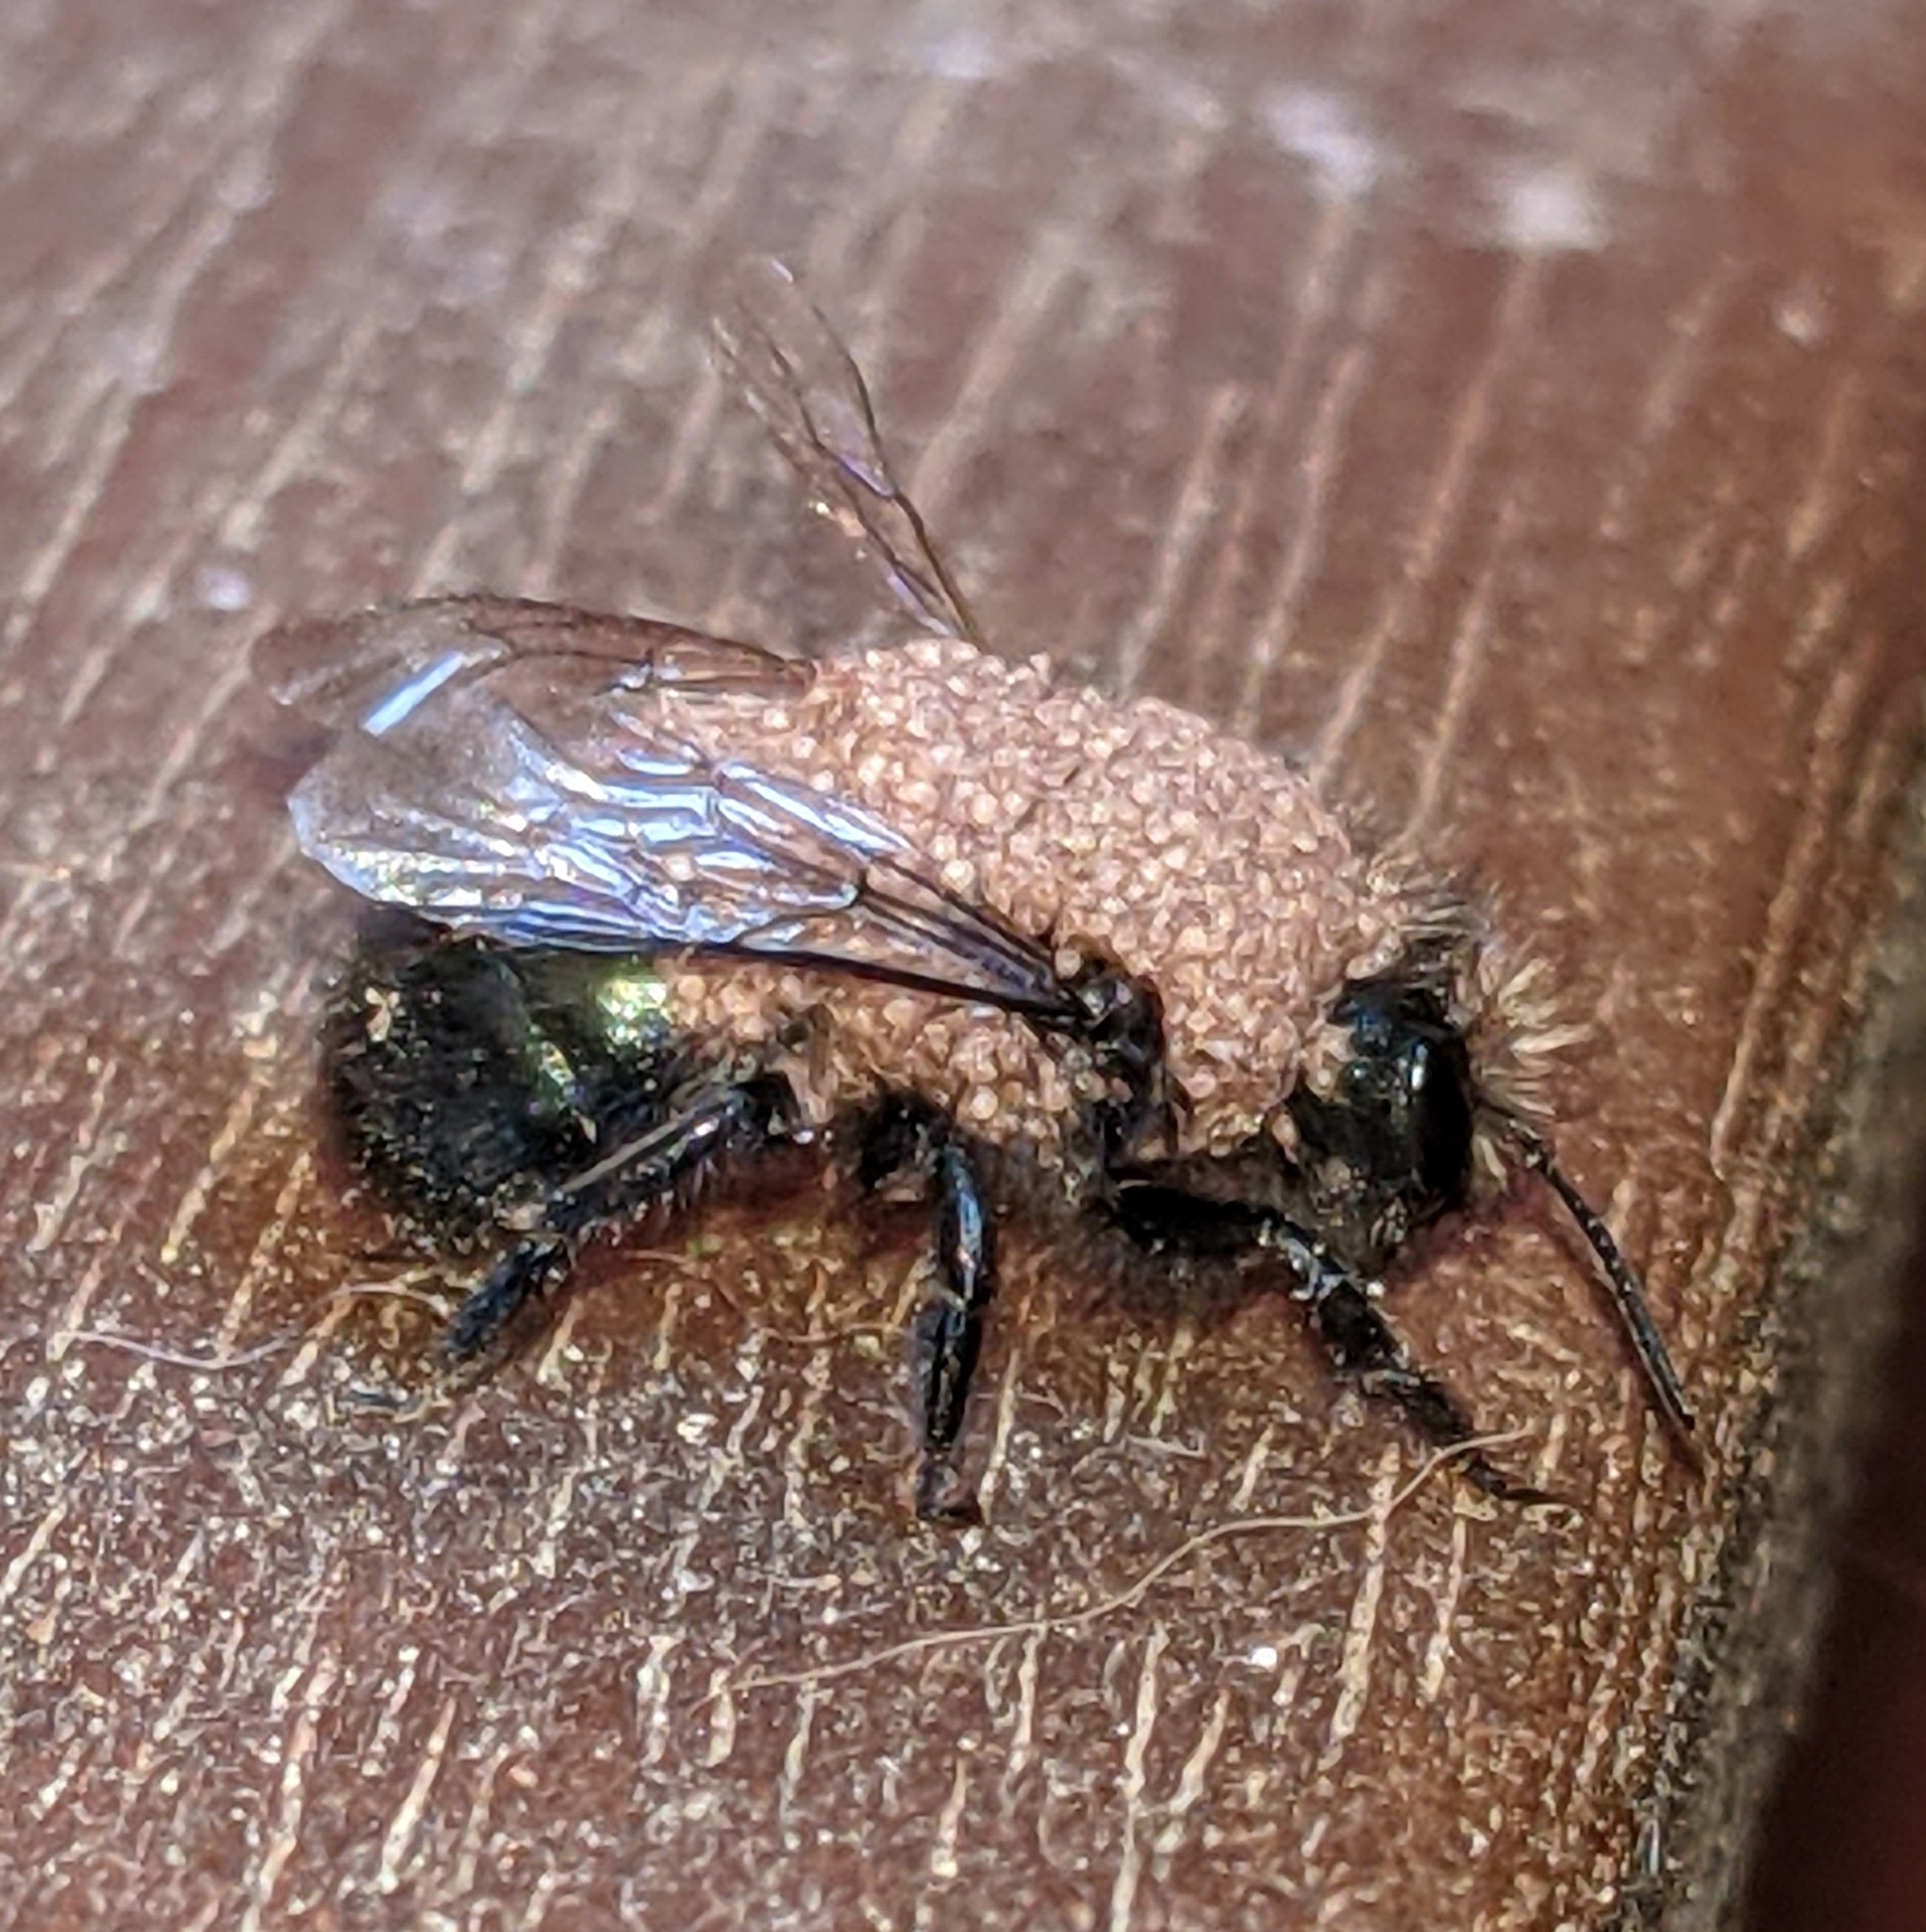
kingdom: Animalia
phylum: Arthropoda
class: Insecta
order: Hymenoptera
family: Megachilidae
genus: Osmia
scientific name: Osmia lignaria
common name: Blue orchard bee
